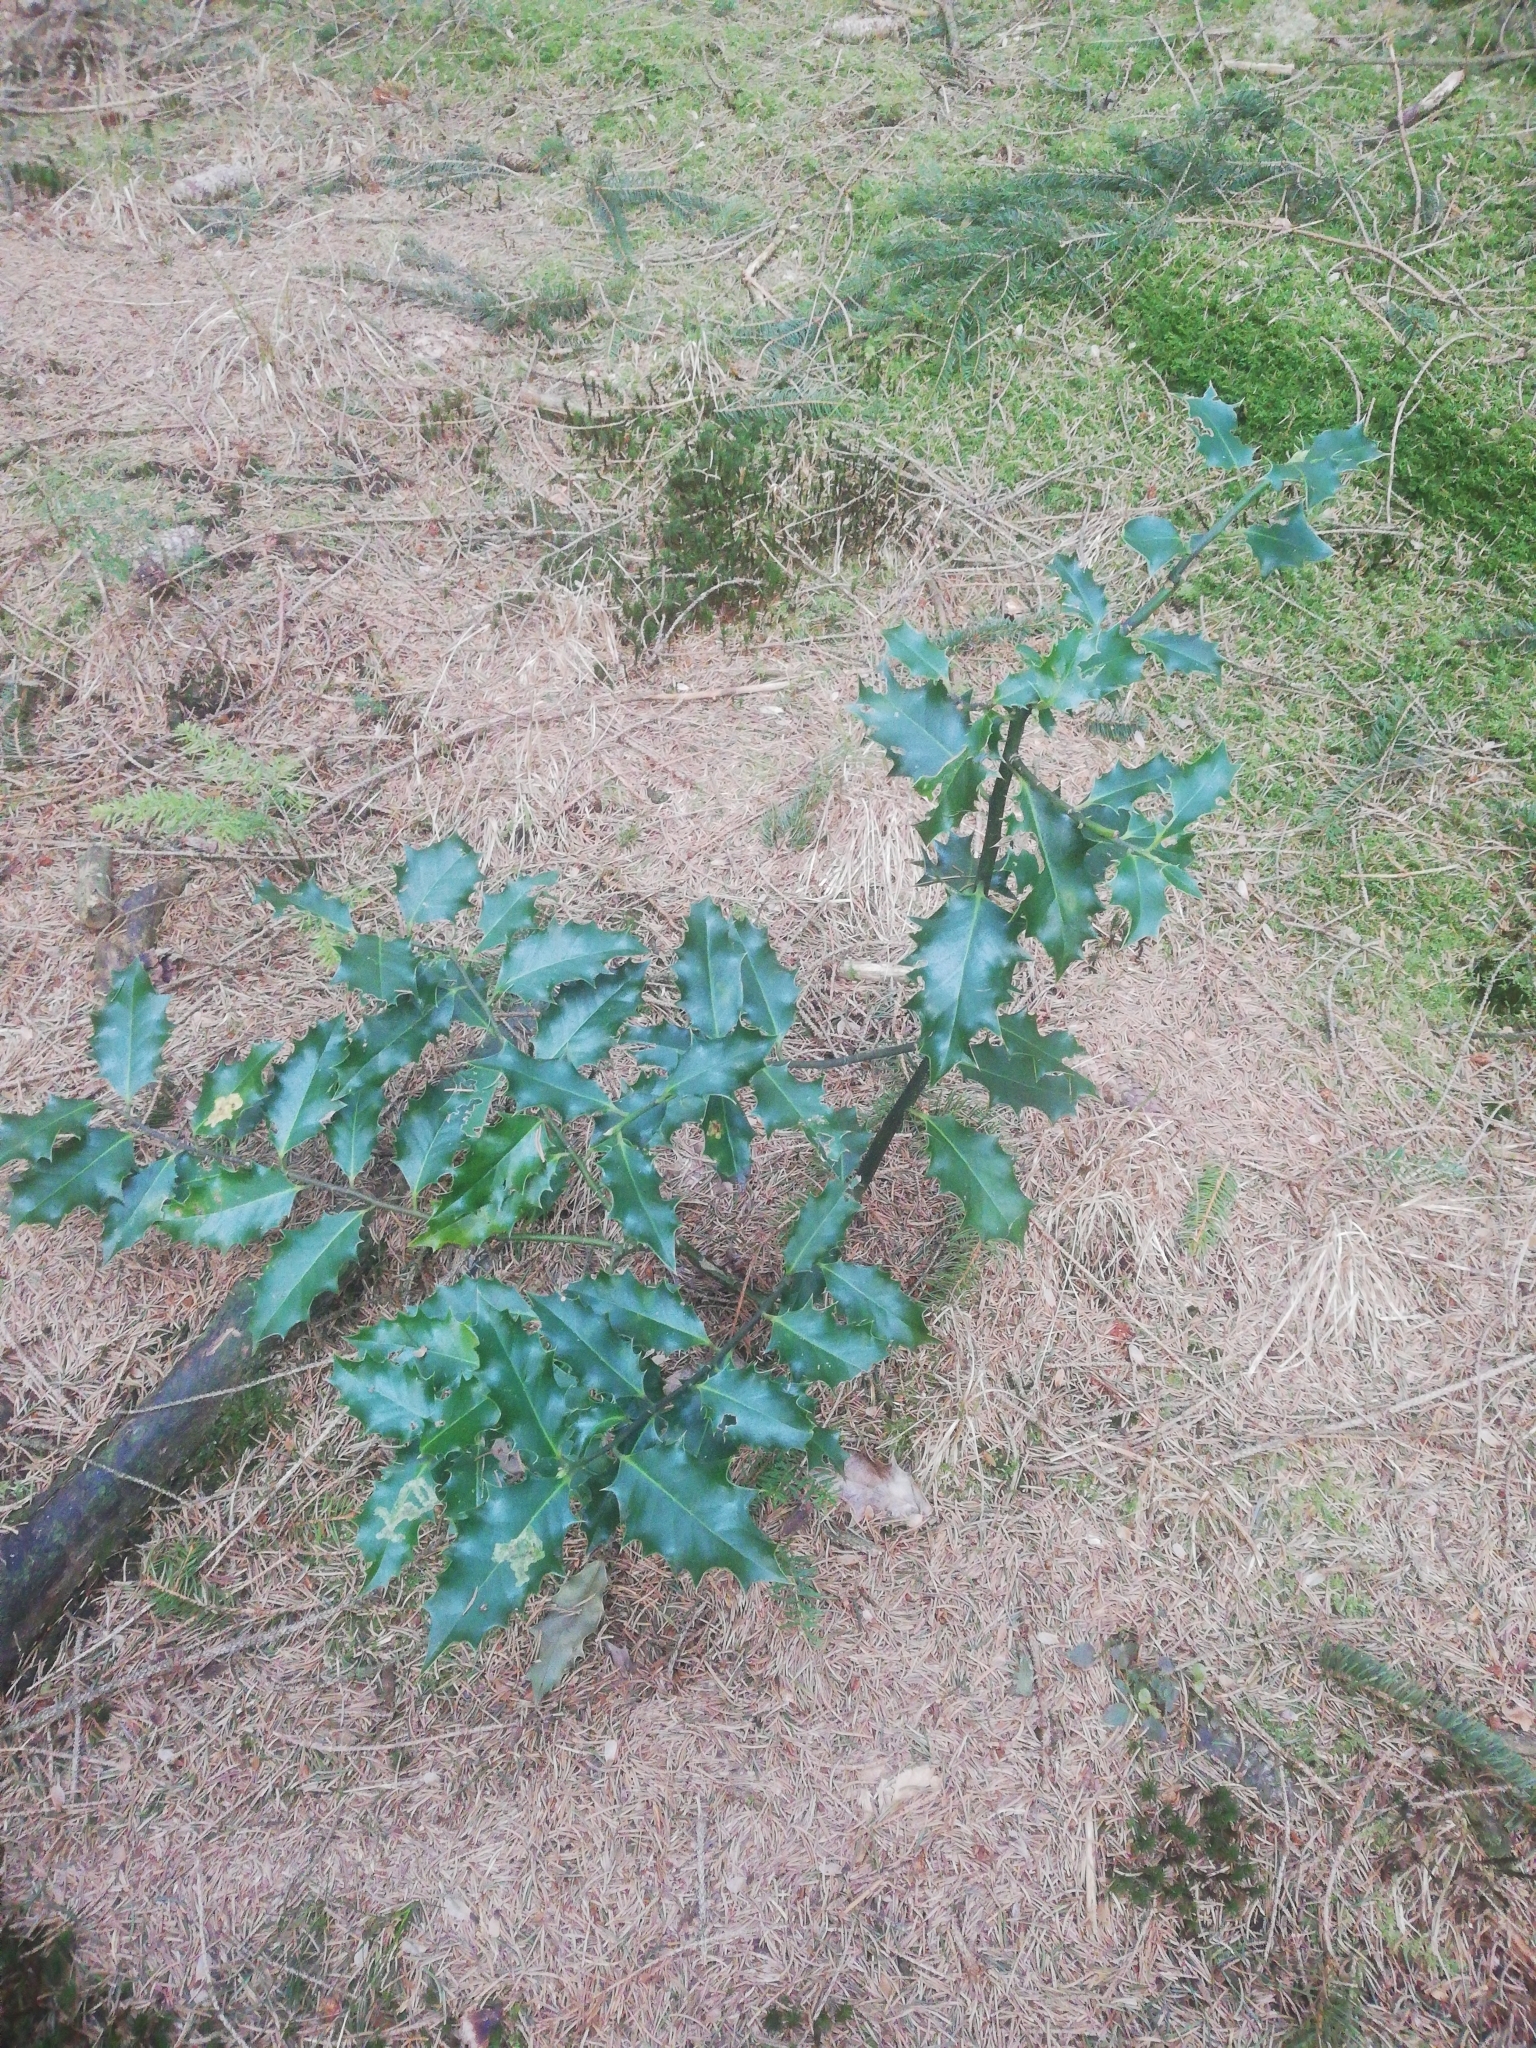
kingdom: Plantae
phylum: Tracheophyta
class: Magnoliopsida
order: Aquifoliales
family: Aquifoliaceae
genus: Ilex
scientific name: Ilex aquifolium
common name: English holly
